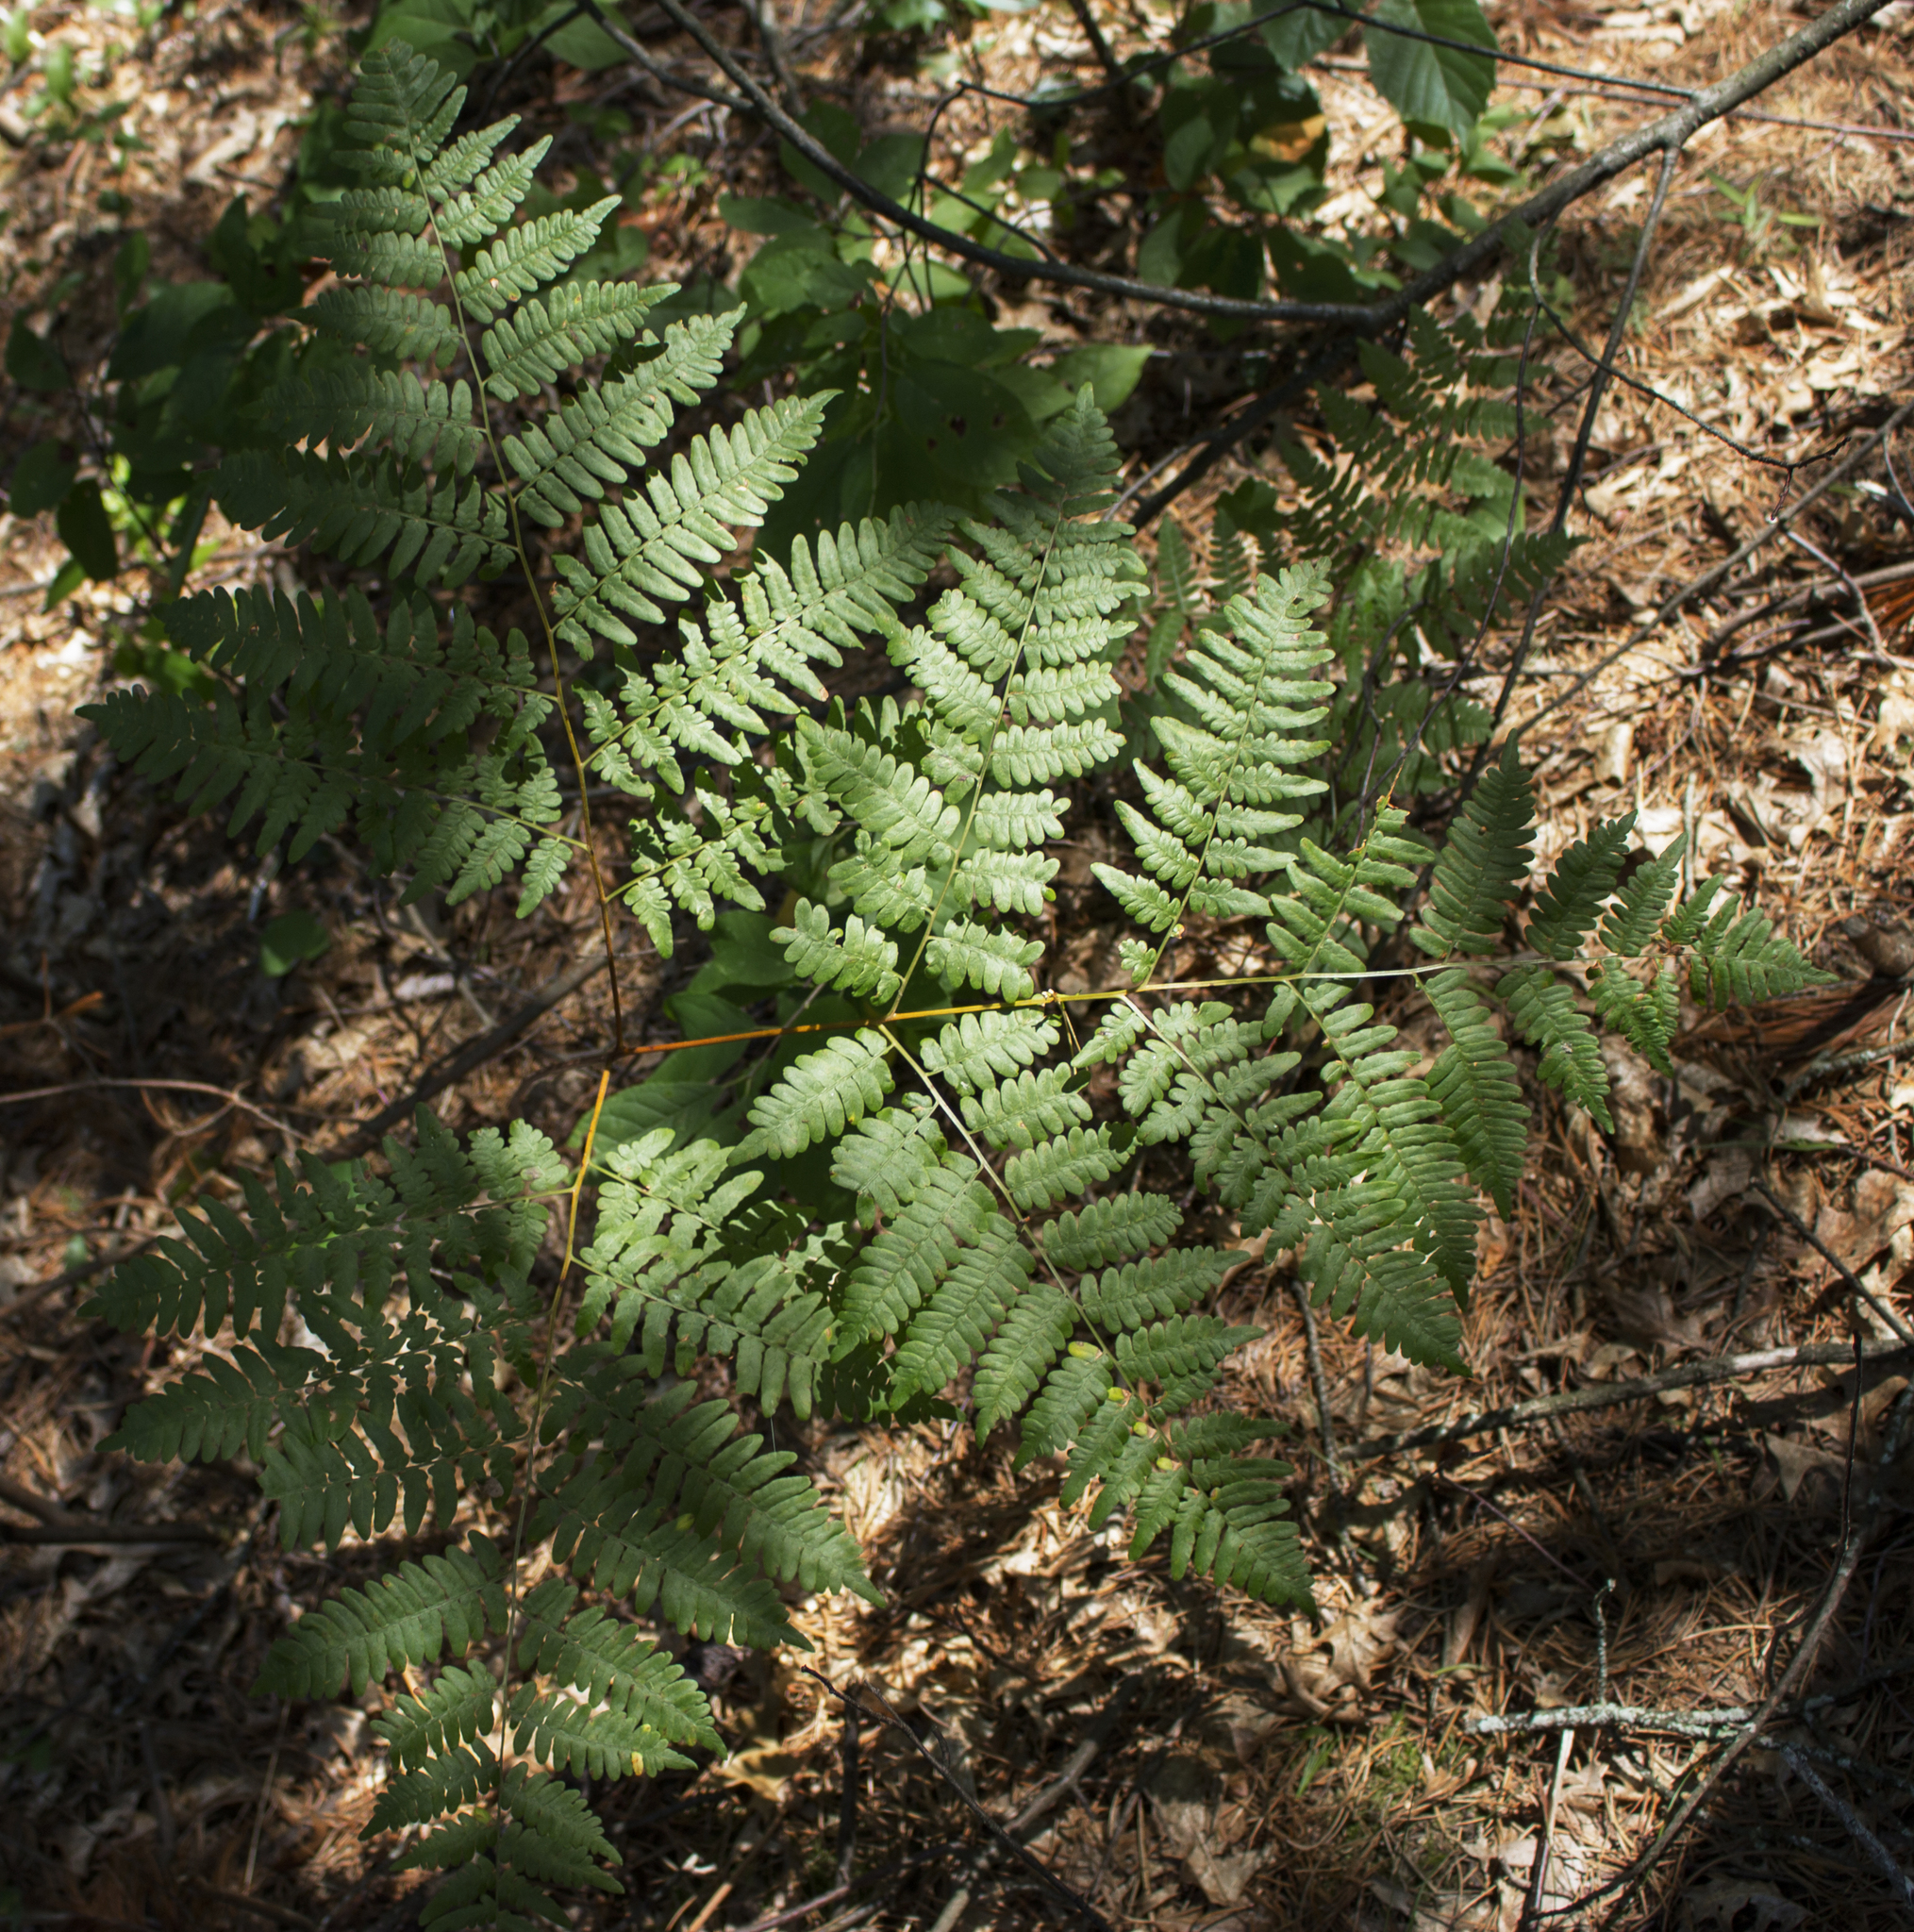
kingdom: Plantae
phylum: Tracheophyta
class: Polypodiopsida
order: Polypodiales
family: Dennstaedtiaceae
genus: Pteridium
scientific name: Pteridium aquilinum
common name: Bracken
